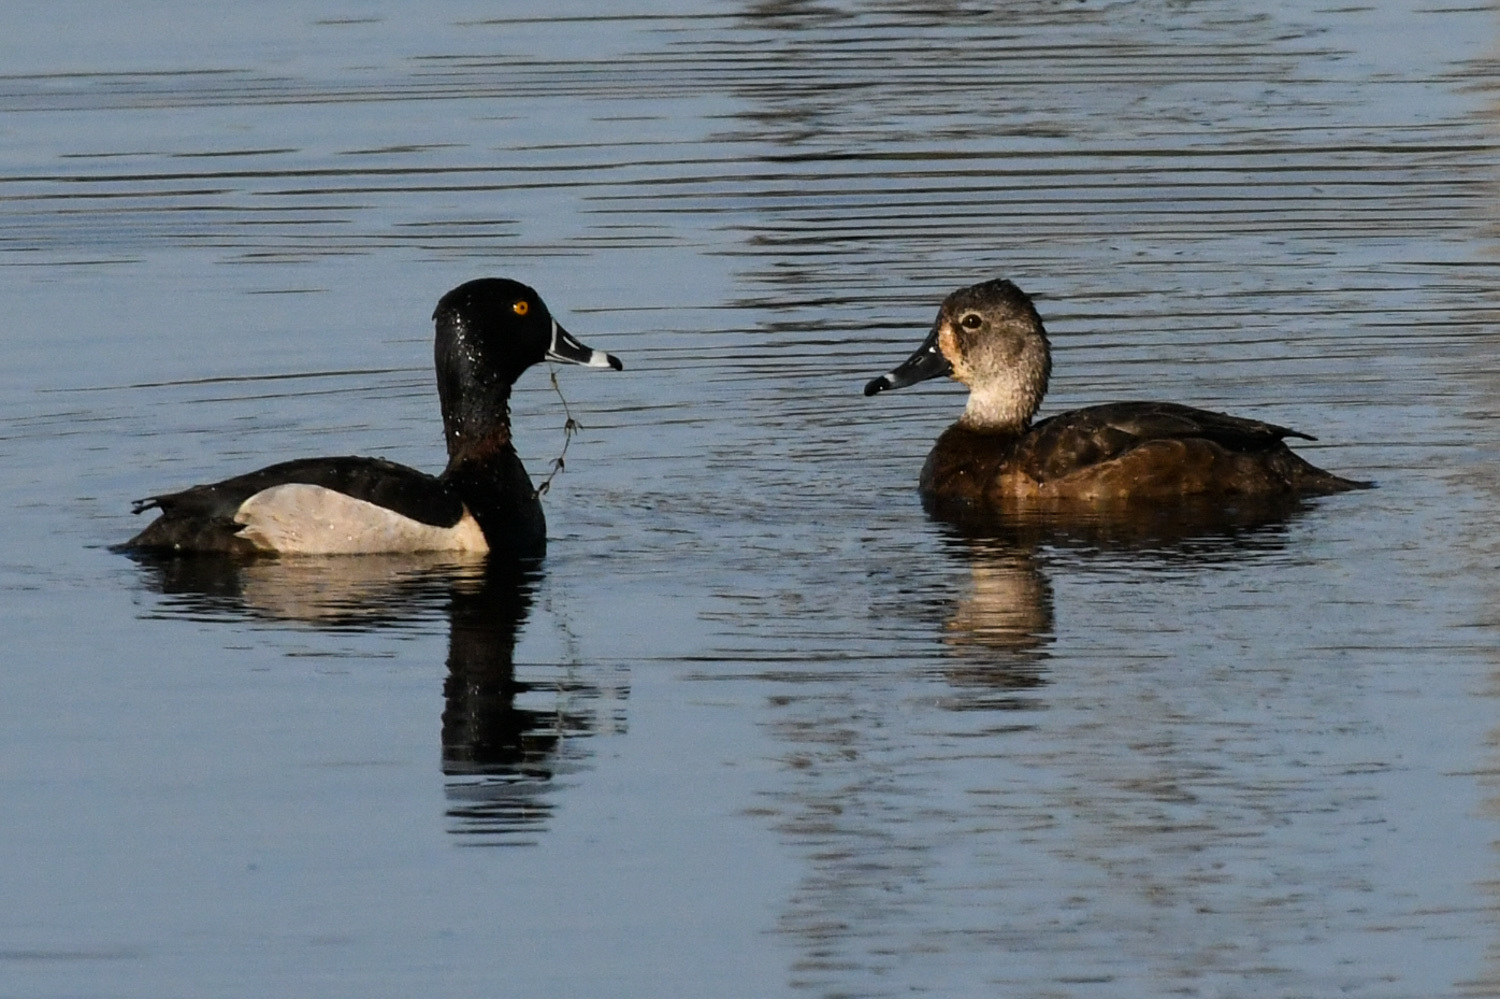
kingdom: Animalia
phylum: Chordata
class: Aves
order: Anseriformes
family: Anatidae
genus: Aythya
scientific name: Aythya collaris
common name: Ring-necked duck
